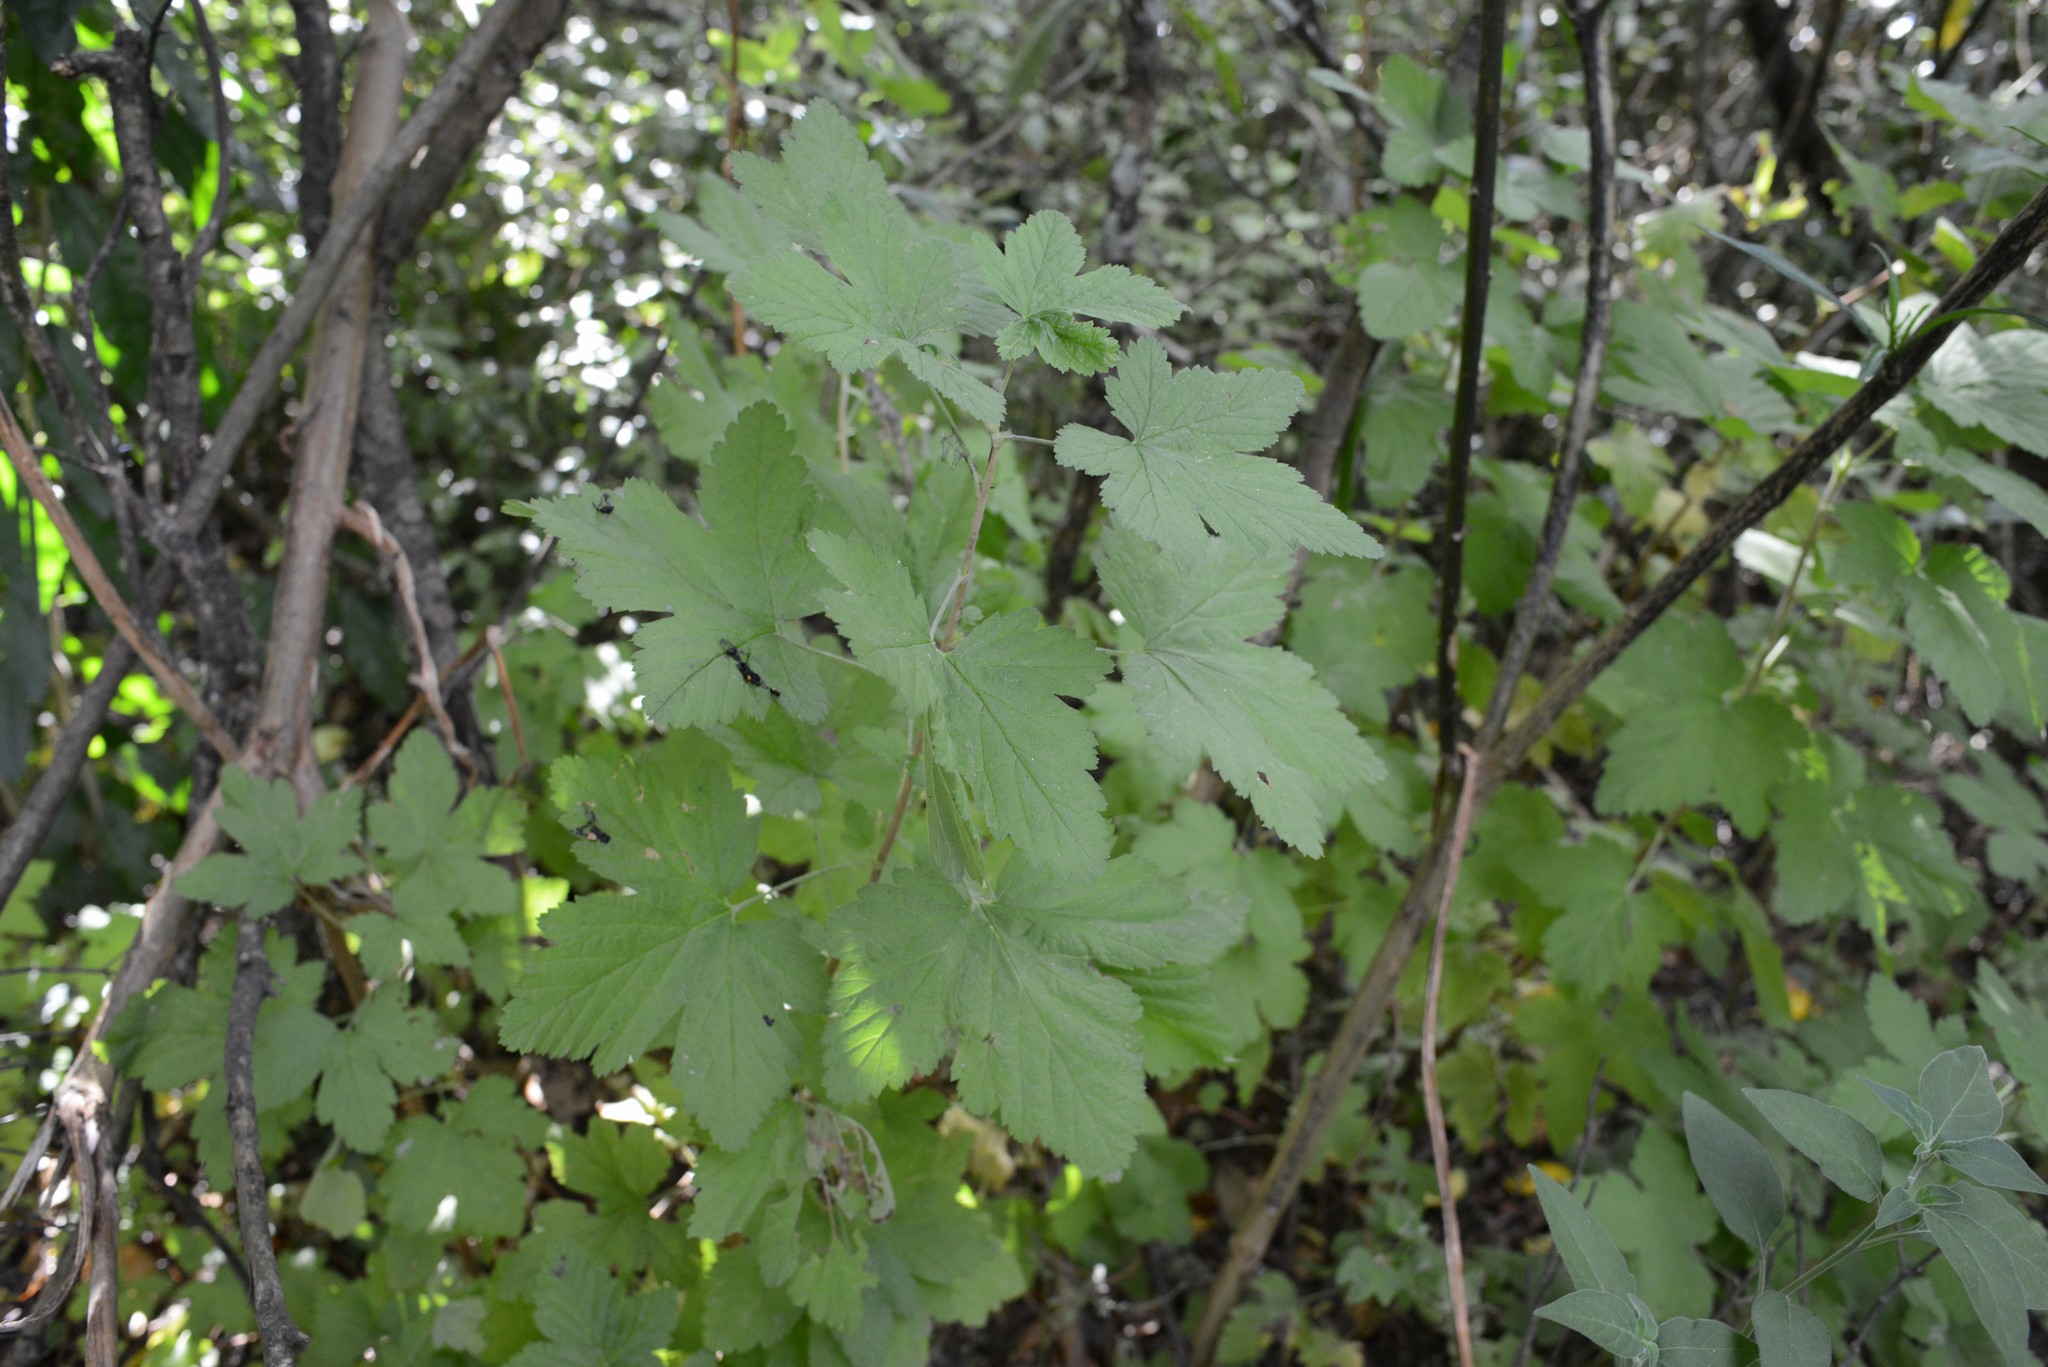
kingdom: Plantae
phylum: Tracheophyta
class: Magnoliopsida
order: Saxifragales
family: Grossulariaceae
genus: Ribes
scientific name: Ribes sanguineum
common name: Flowering currant
